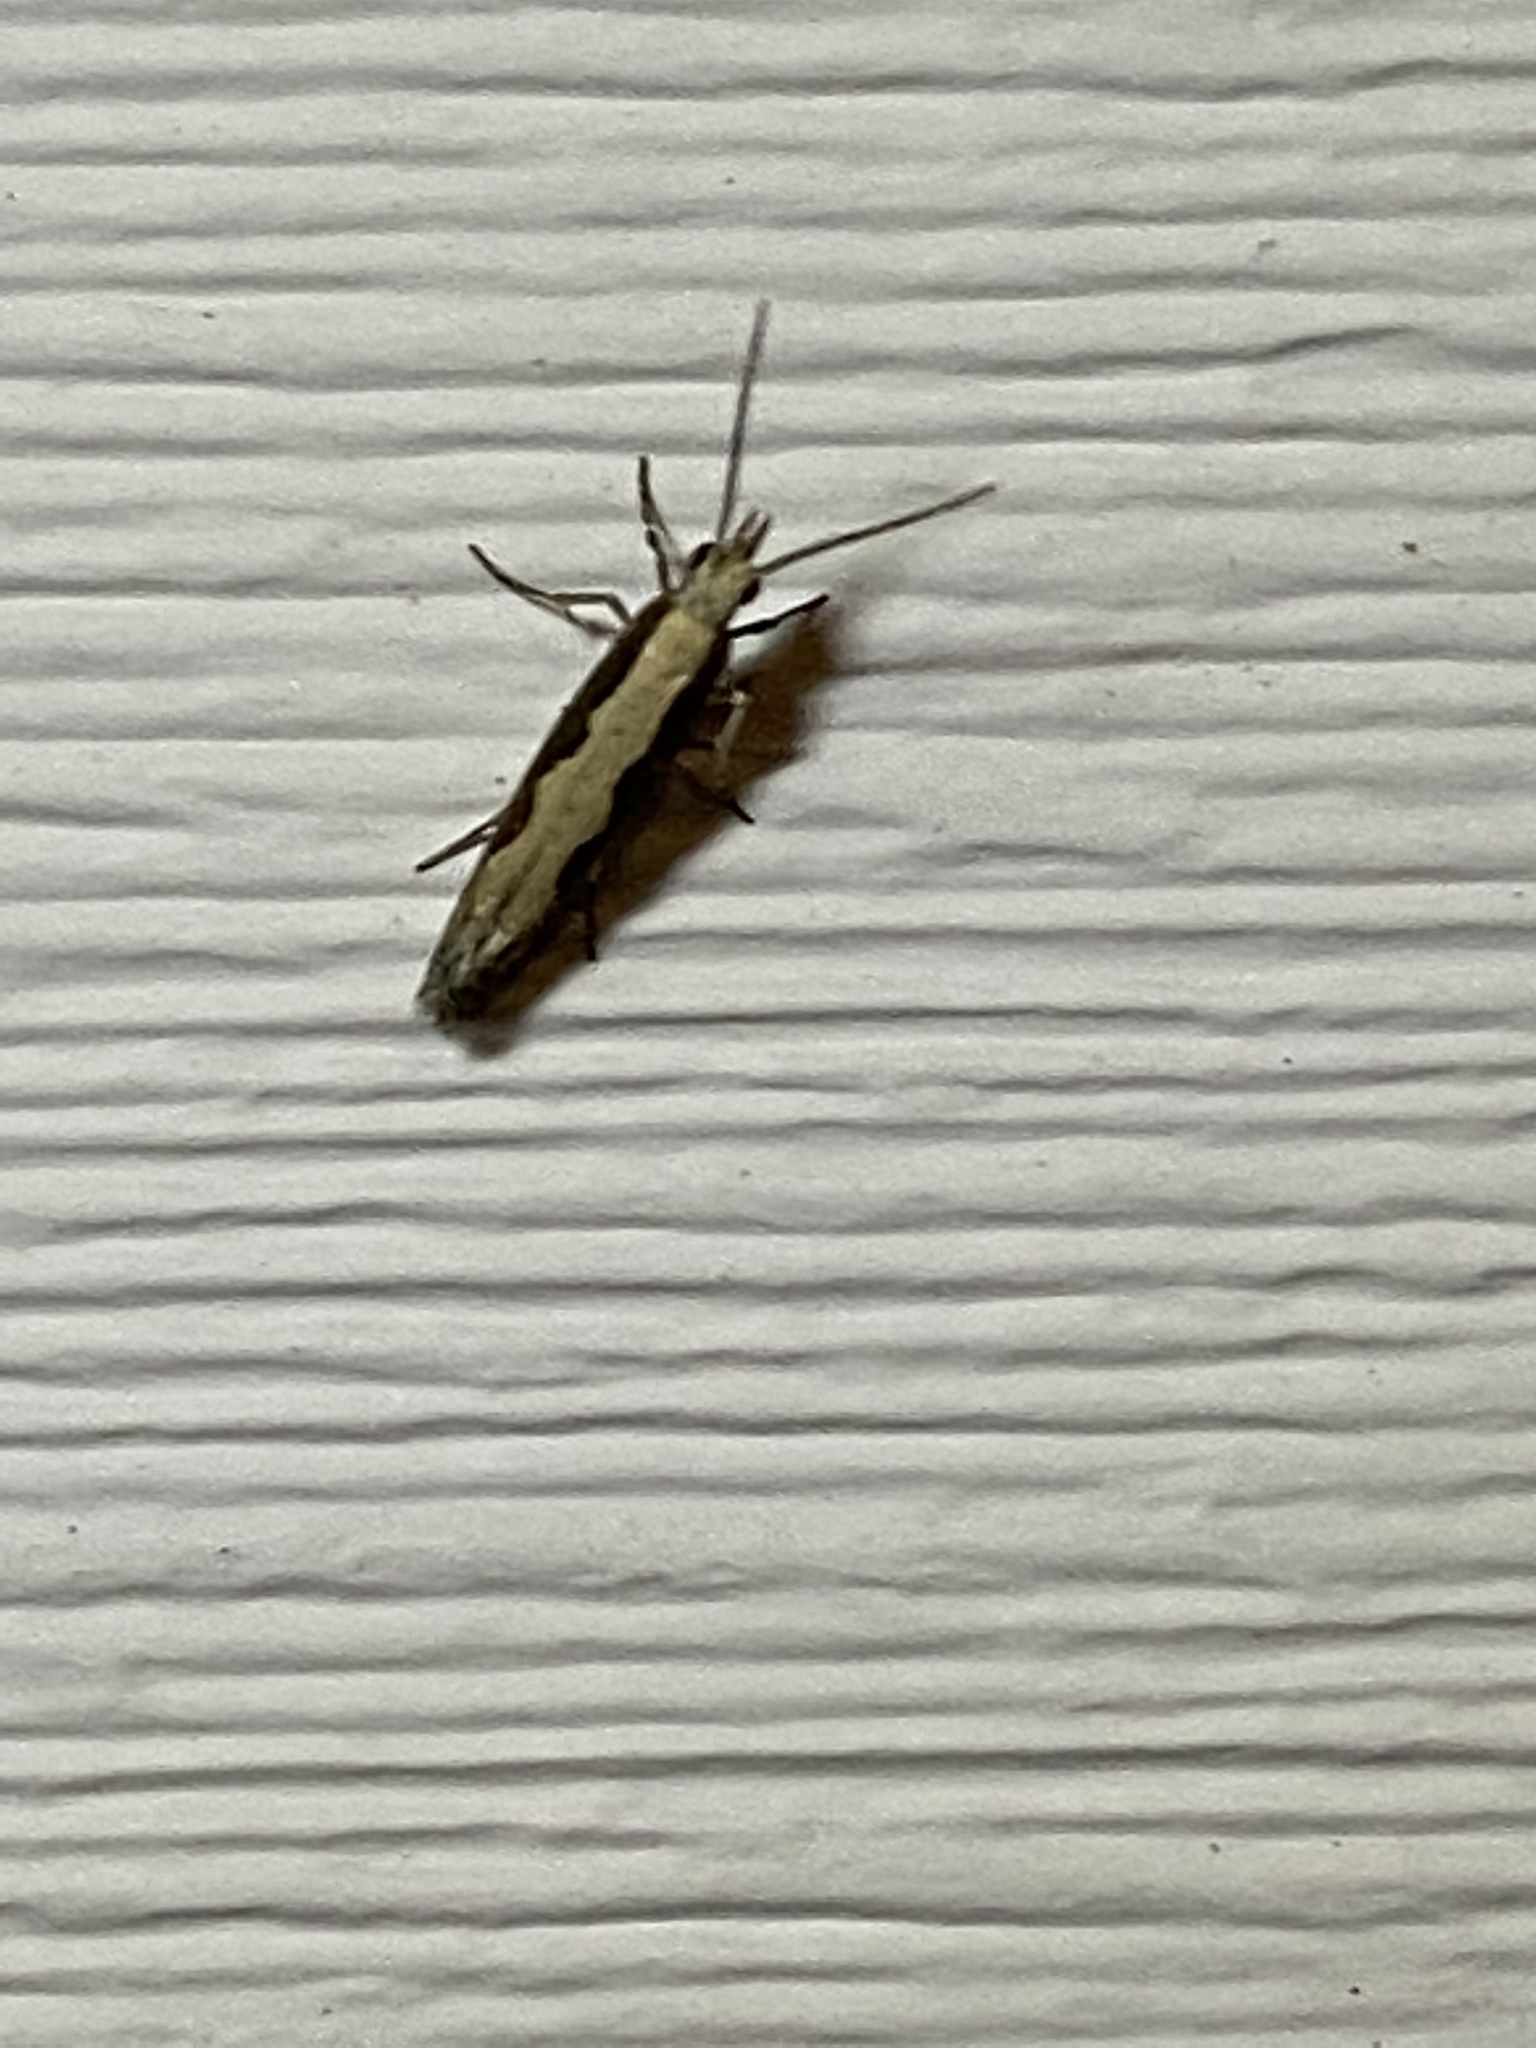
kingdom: Animalia
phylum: Arthropoda
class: Insecta
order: Lepidoptera
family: Plutellidae
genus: Plutella
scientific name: Plutella xylostella
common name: Diamond-back moth
